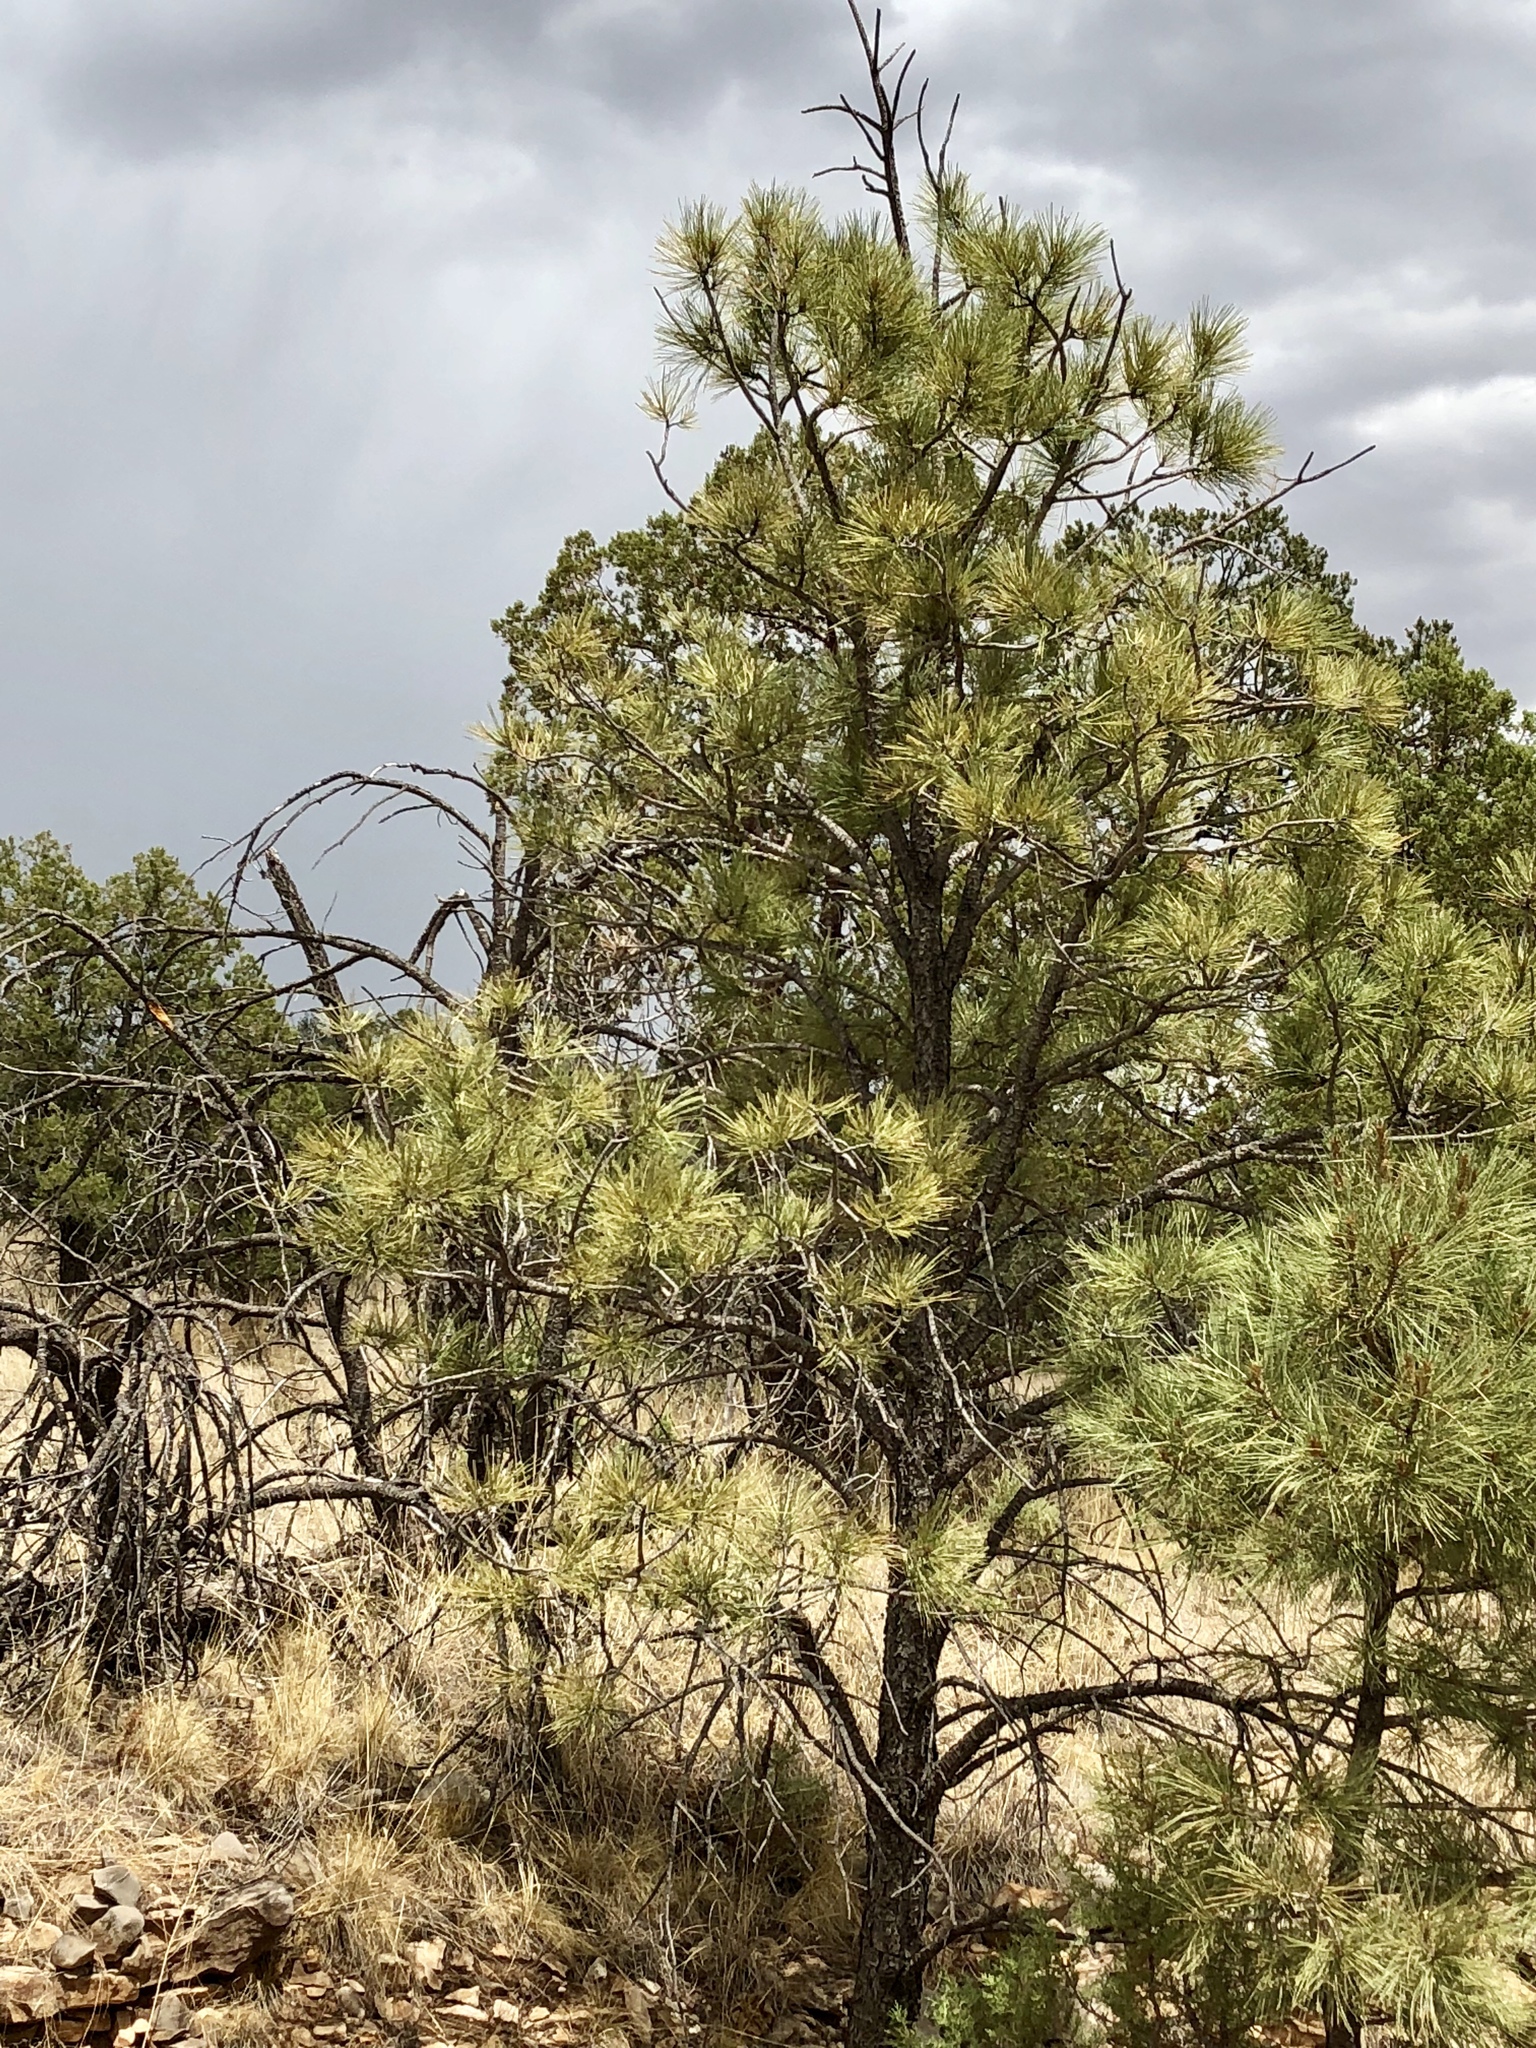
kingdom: Plantae
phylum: Tracheophyta
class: Pinopsida
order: Pinales
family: Pinaceae
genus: Pinus
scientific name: Pinus ponderosa
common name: Western yellow-pine
